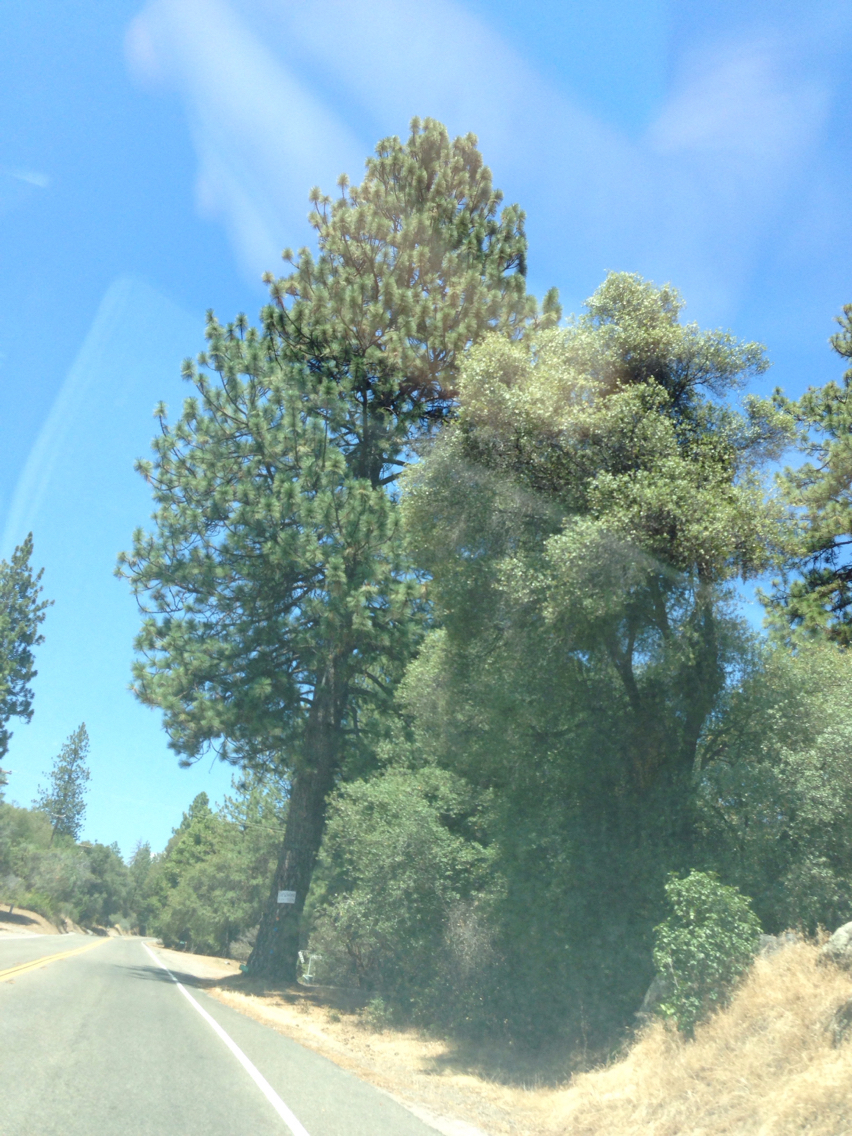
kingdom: Plantae
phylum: Tracheophyta
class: Pinopsida
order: Pinales
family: Pinaceae
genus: Pinus
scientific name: Pinus ponderosa
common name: Western yellow-pine
